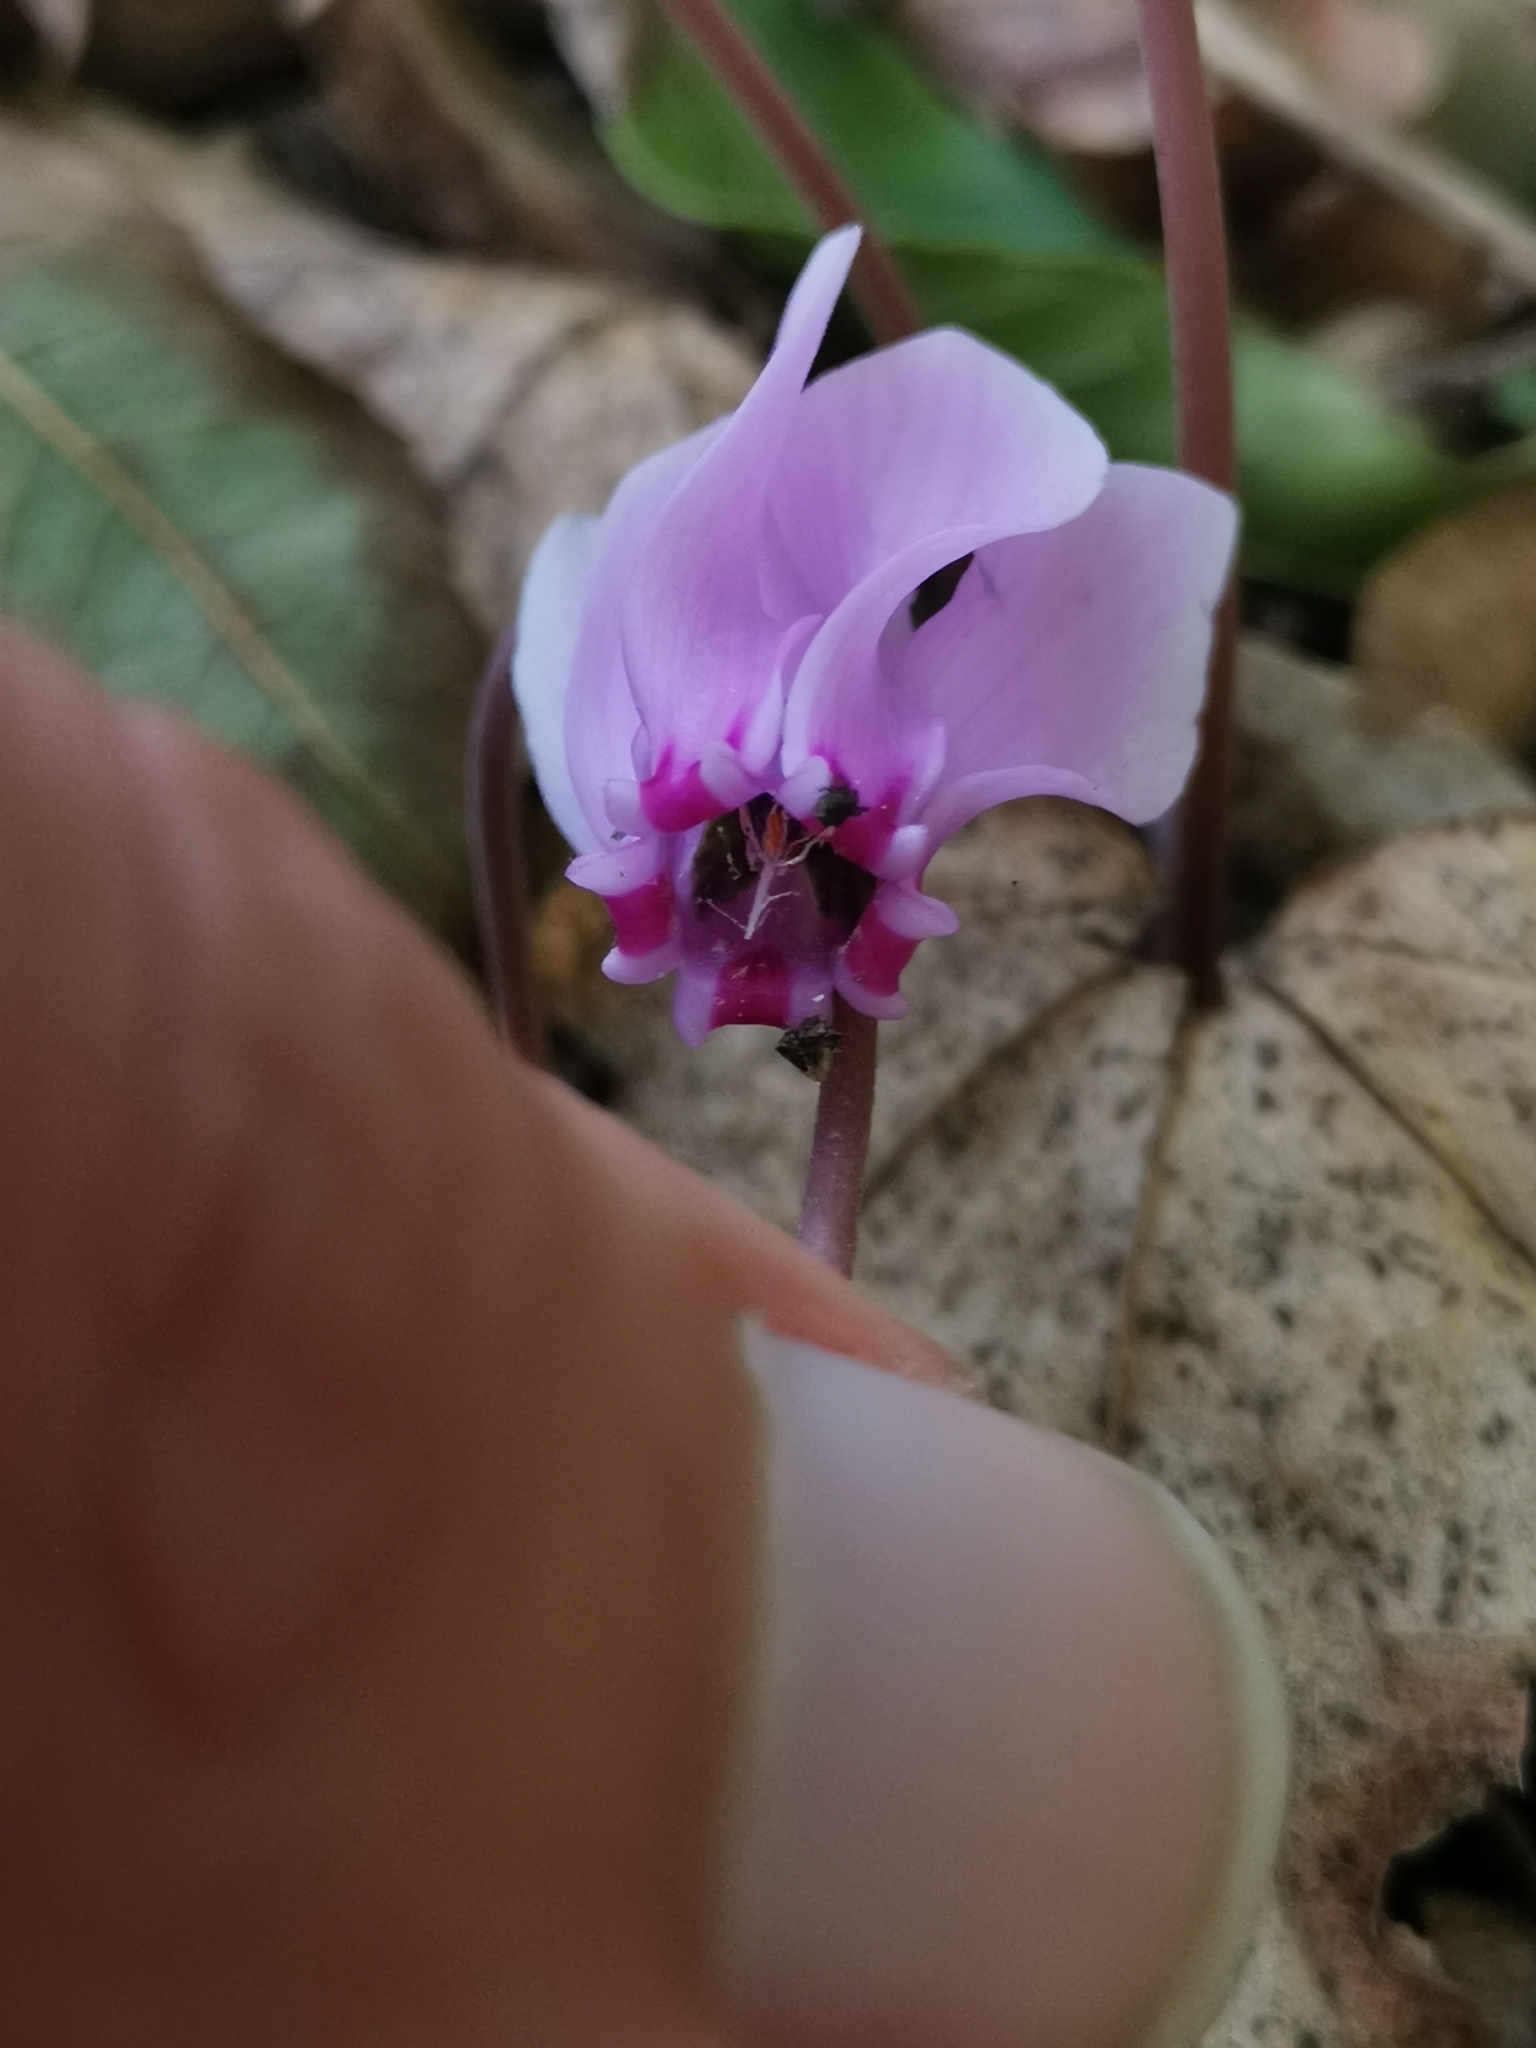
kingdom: Plantae
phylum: Tracheophyta
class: Magnoliopsida
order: Ericales
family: Primulaceae
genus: Cyclamen
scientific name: Cyclamen hederifolium
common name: Sowbread
